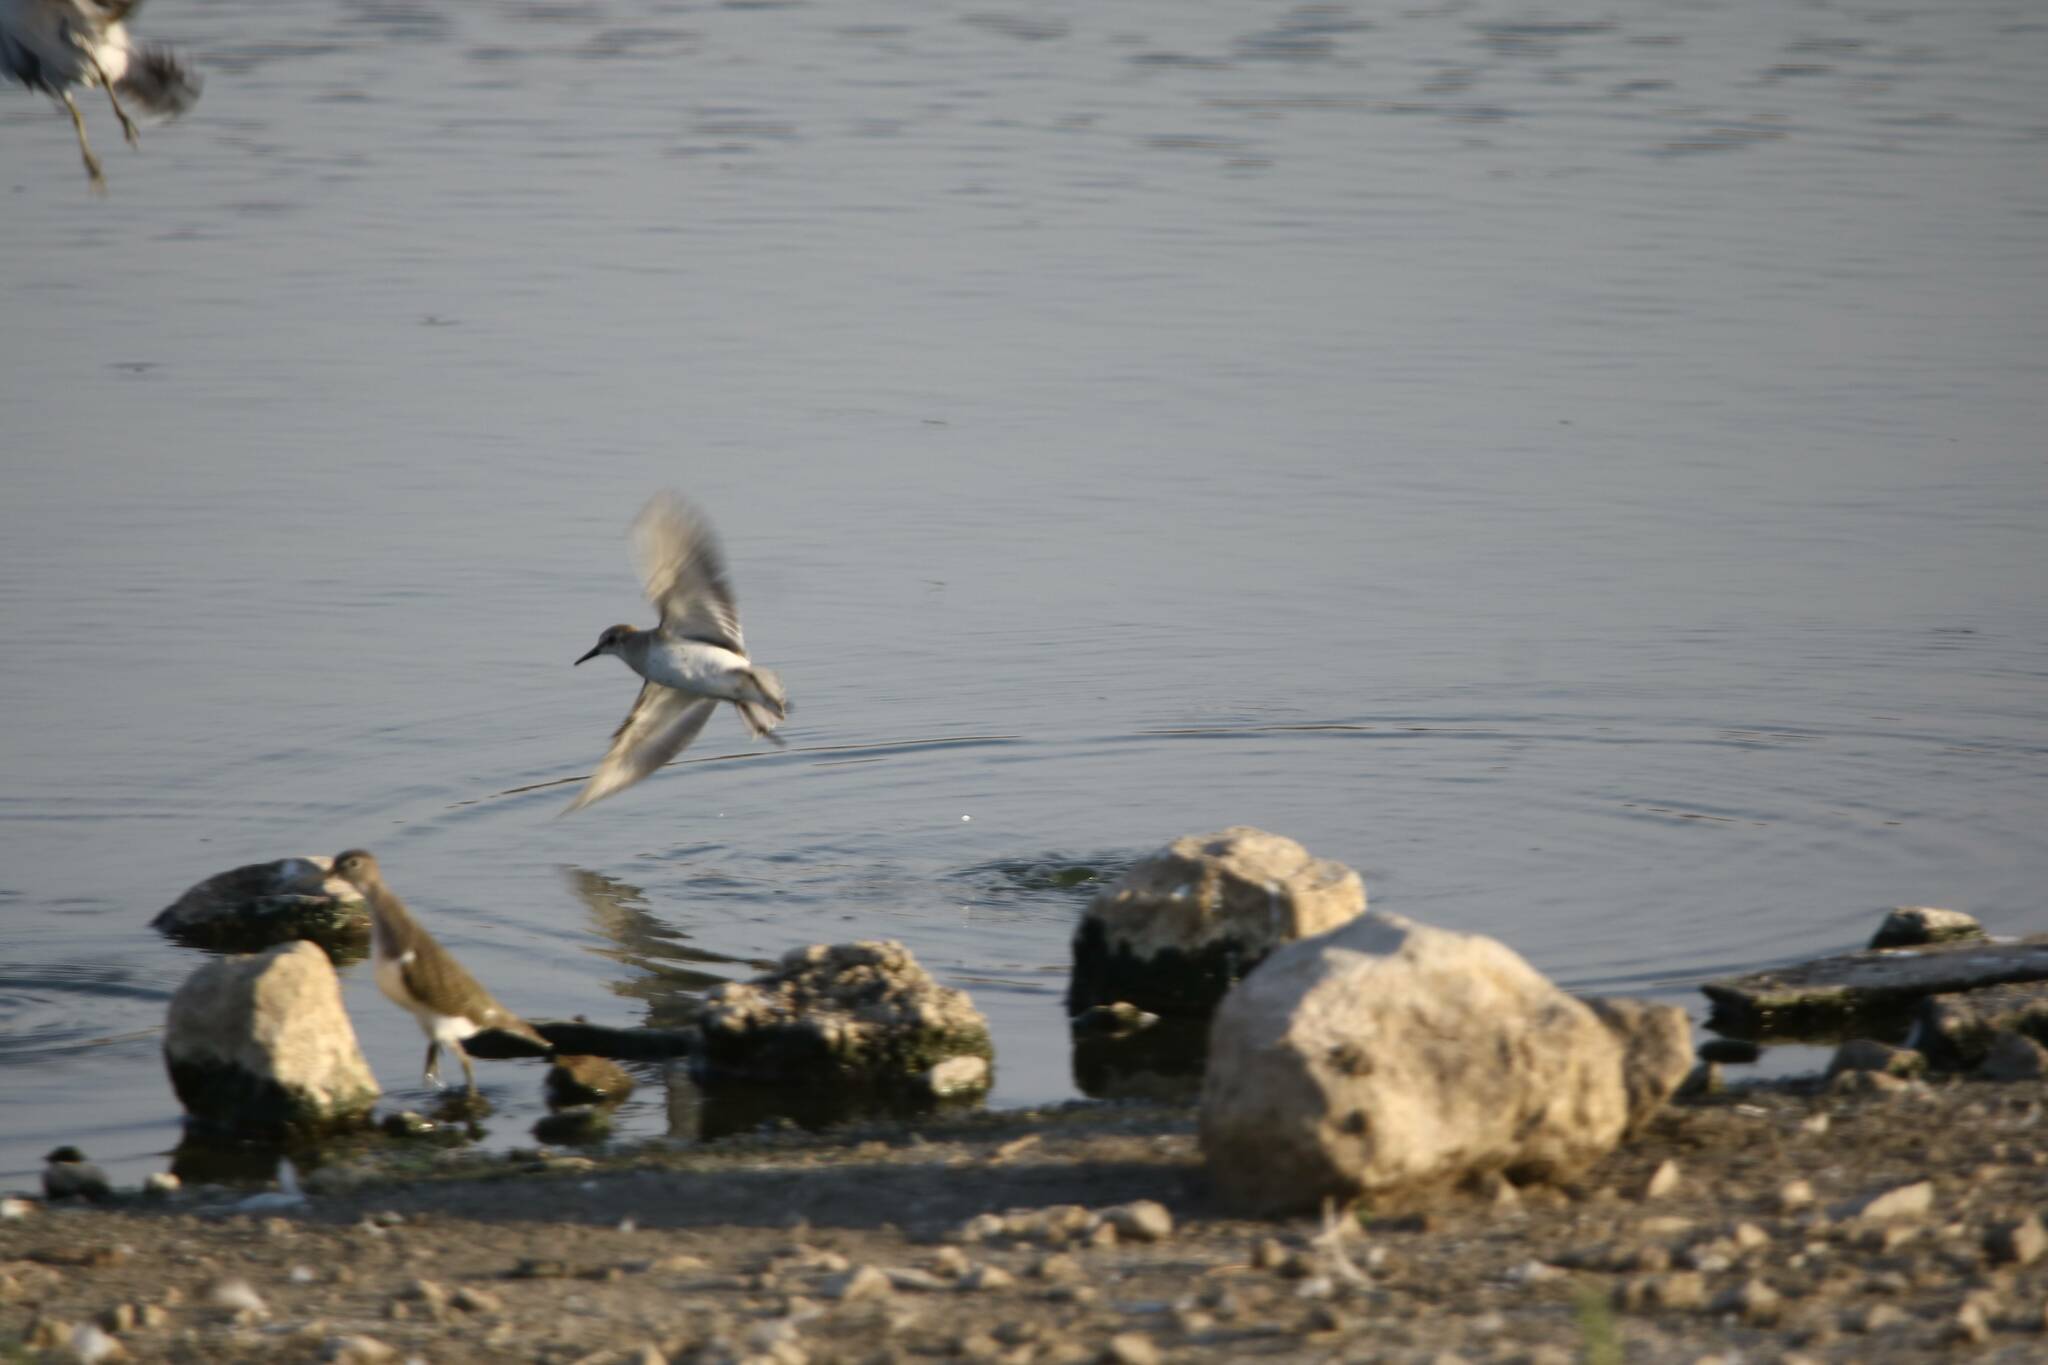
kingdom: Animalia
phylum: Chordata
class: Aves
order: Charadriiformes
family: Scolopacidae
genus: Actitis
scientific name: Actitis hypoleucos
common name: Common sandpiper
